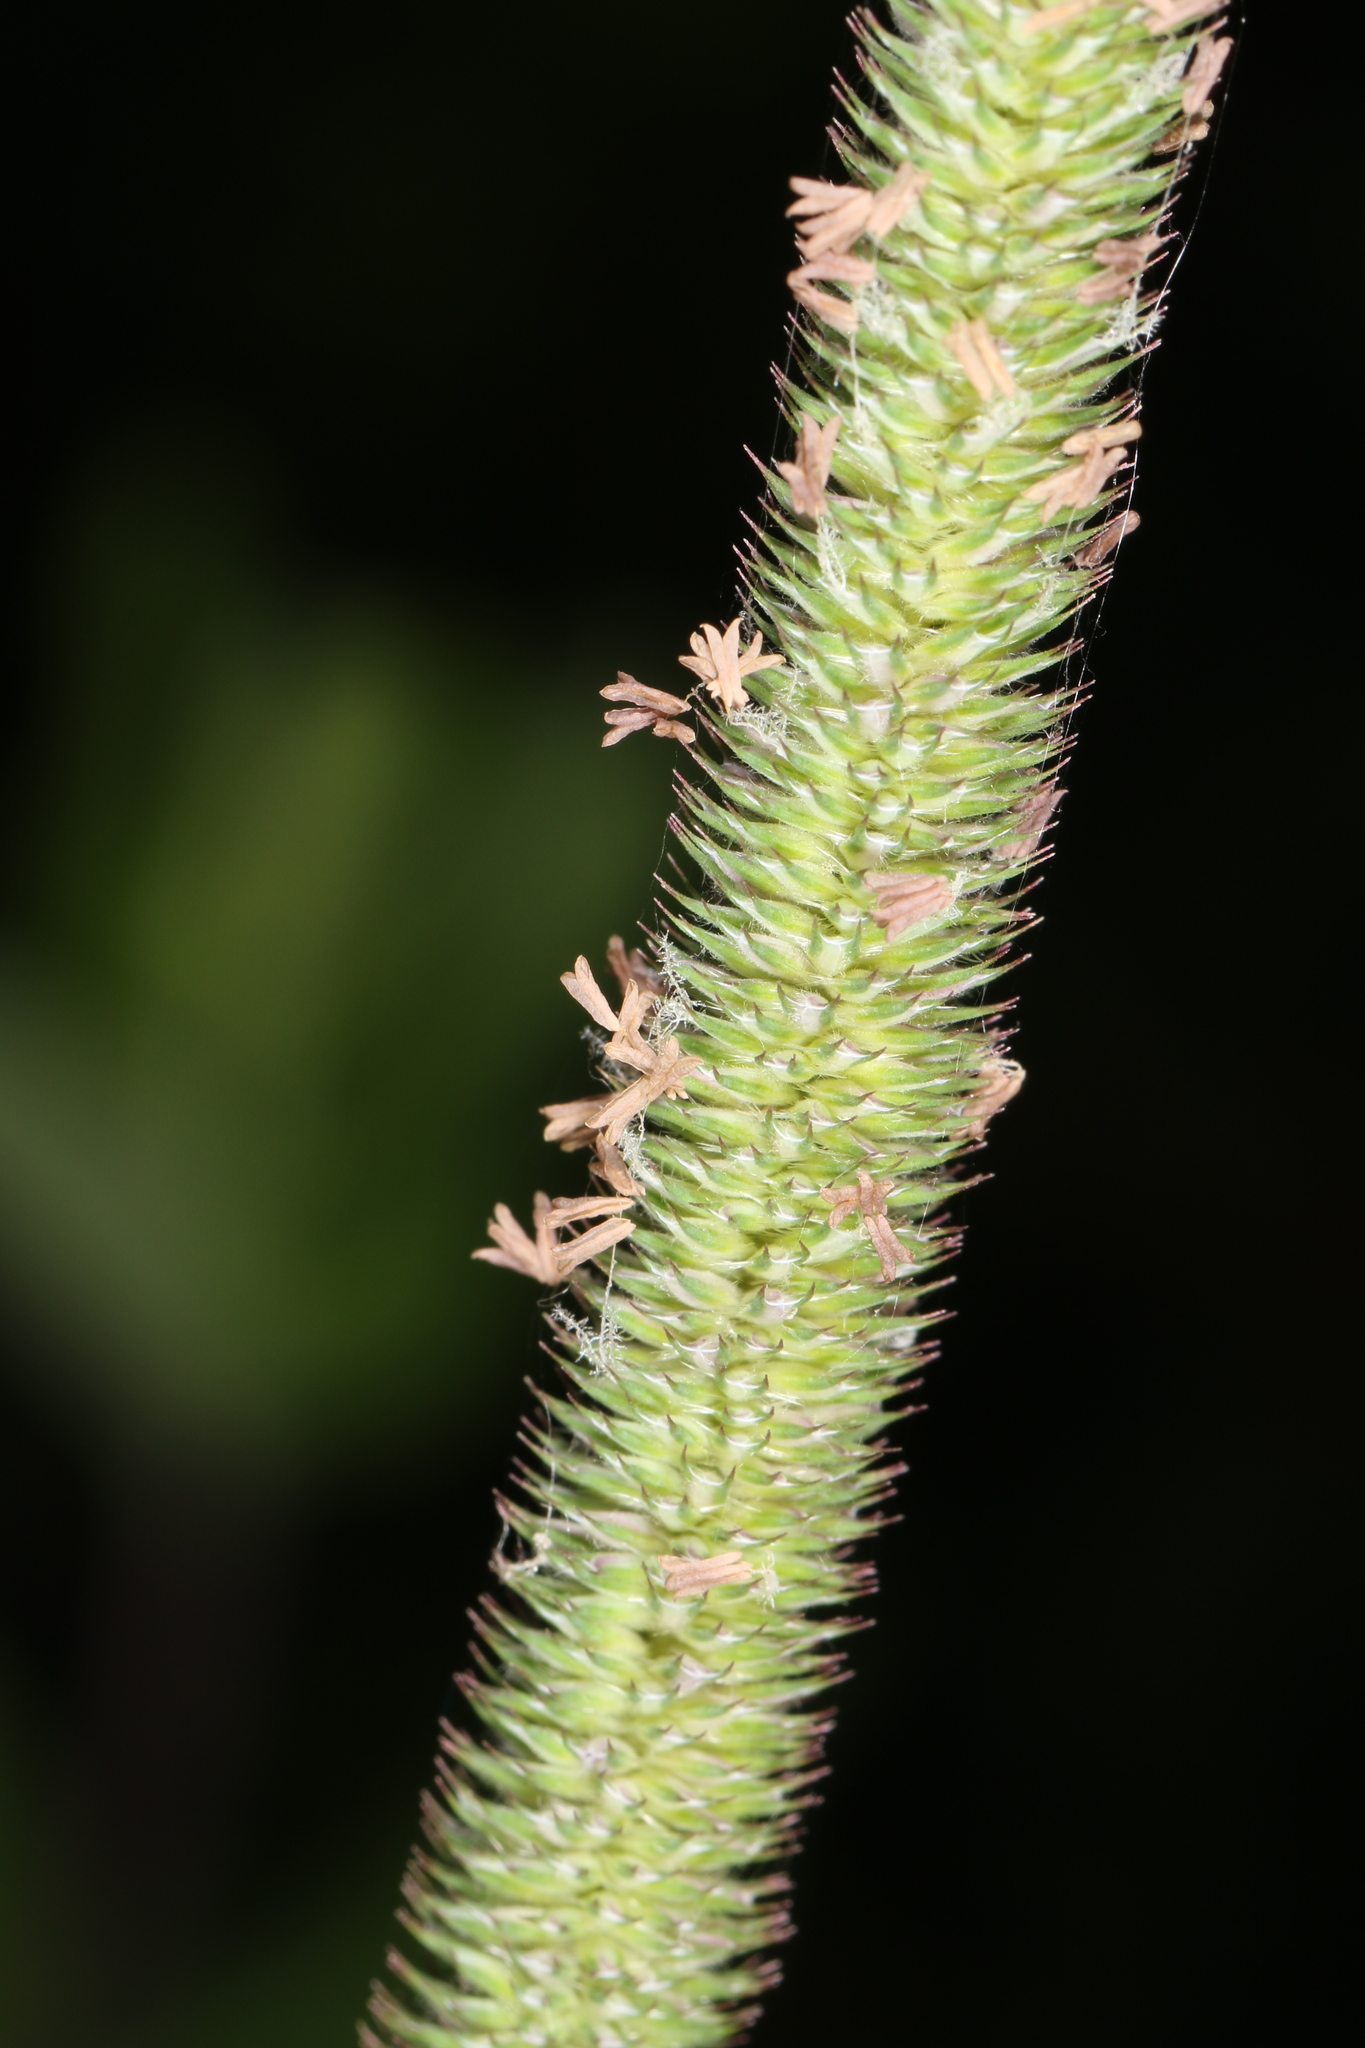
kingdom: Plantae
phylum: Tracheophyta
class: Liliopsida
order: Poales
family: Poaceae
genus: Phleum
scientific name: Phleum pratense
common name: Timothy grass
